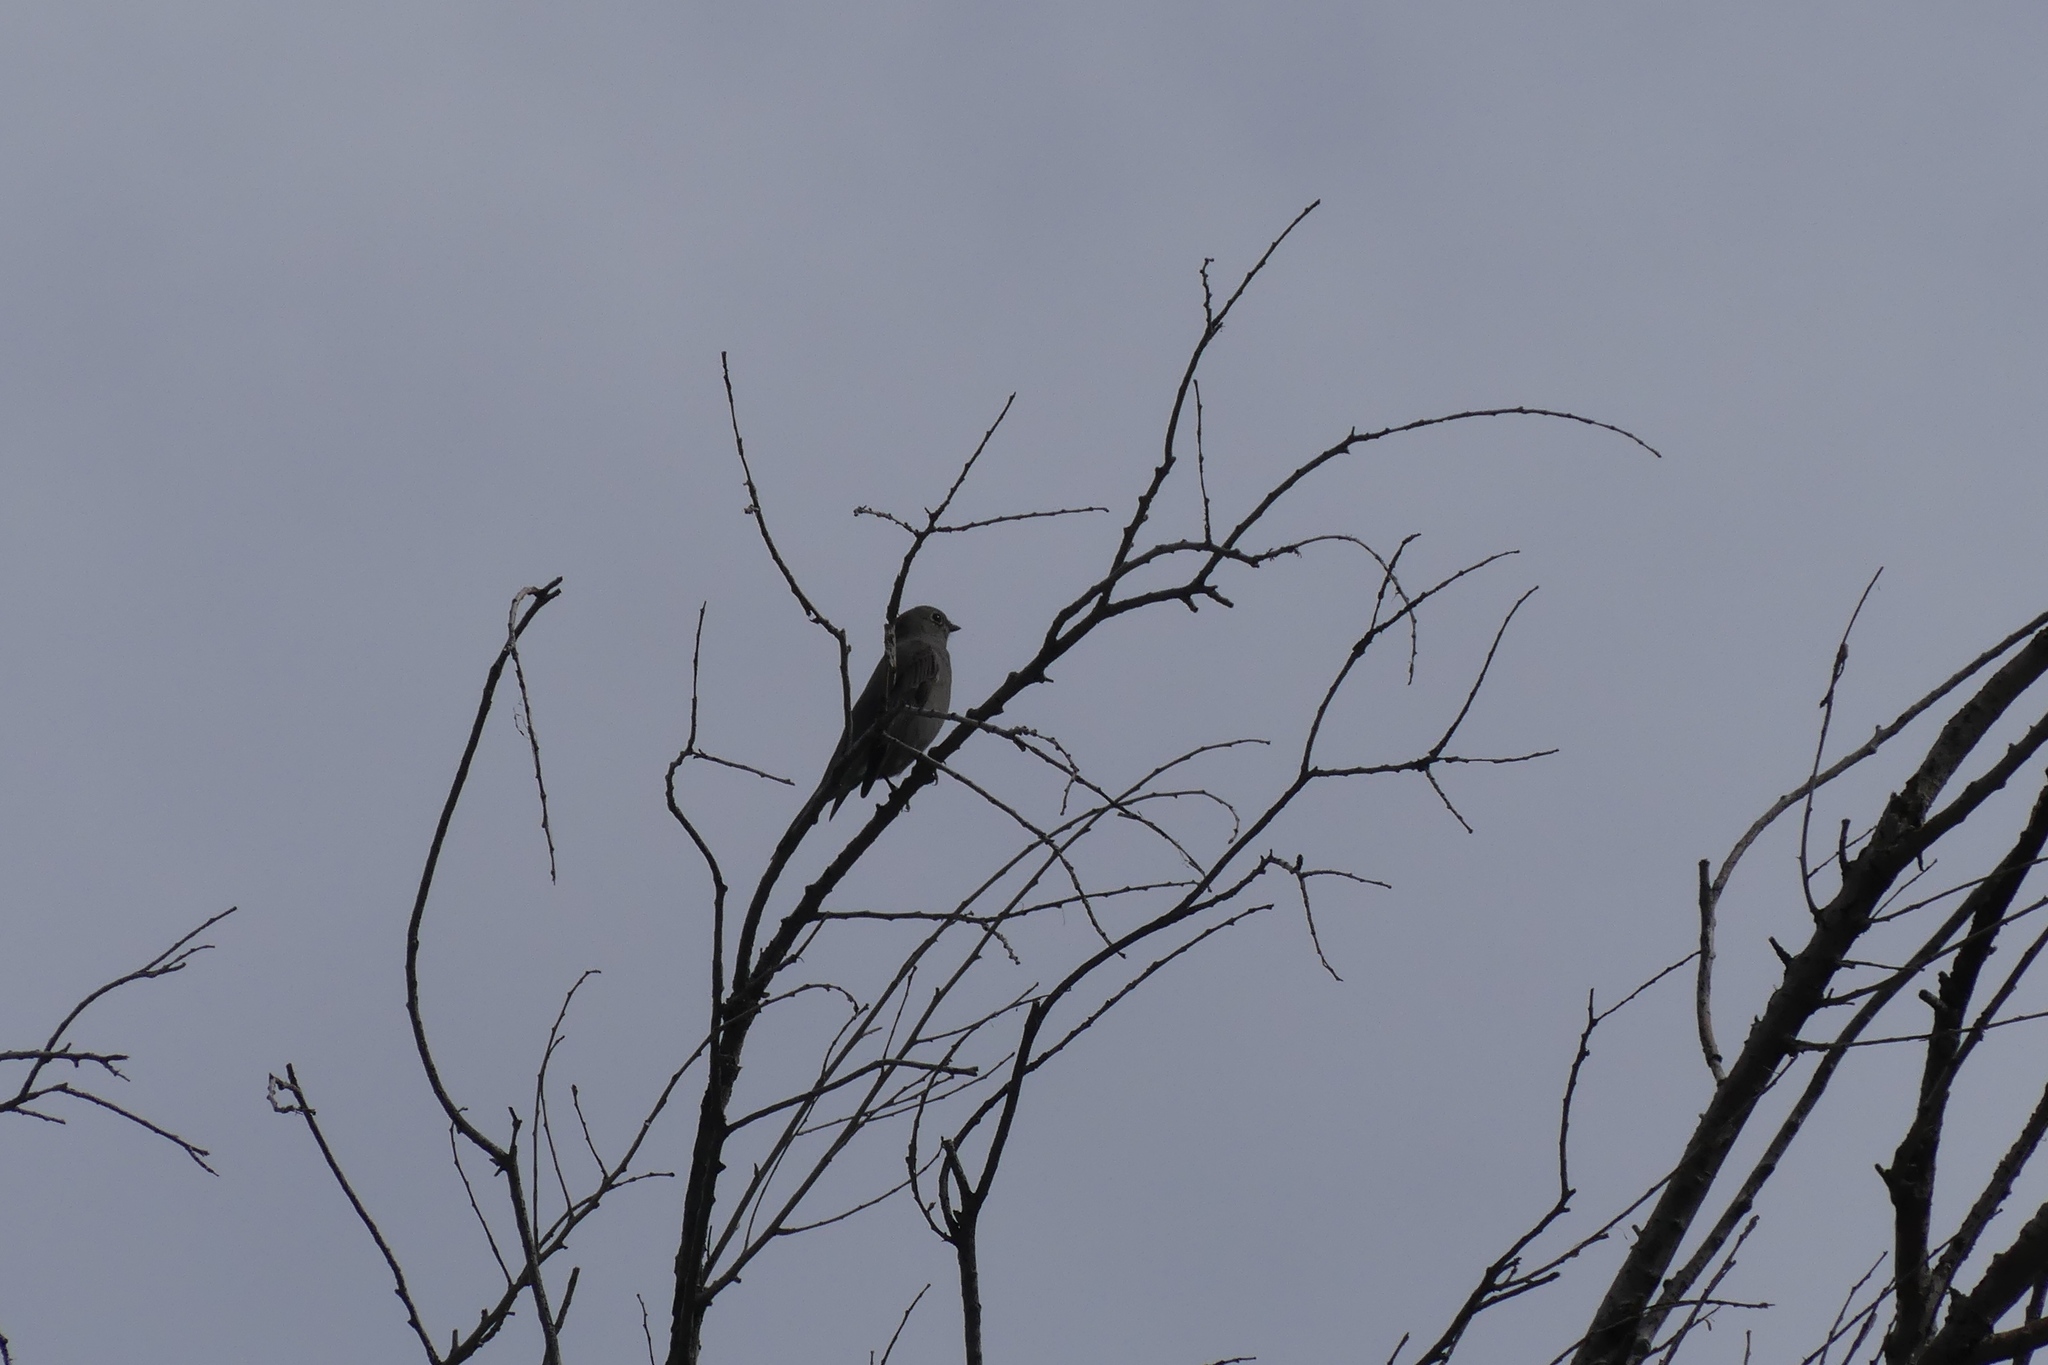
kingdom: Animalia
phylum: Chordata
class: Aves
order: Passeriformes
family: Turdidae
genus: Myadestes
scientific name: Myadestes townsendi
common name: Townsend's solitaire
